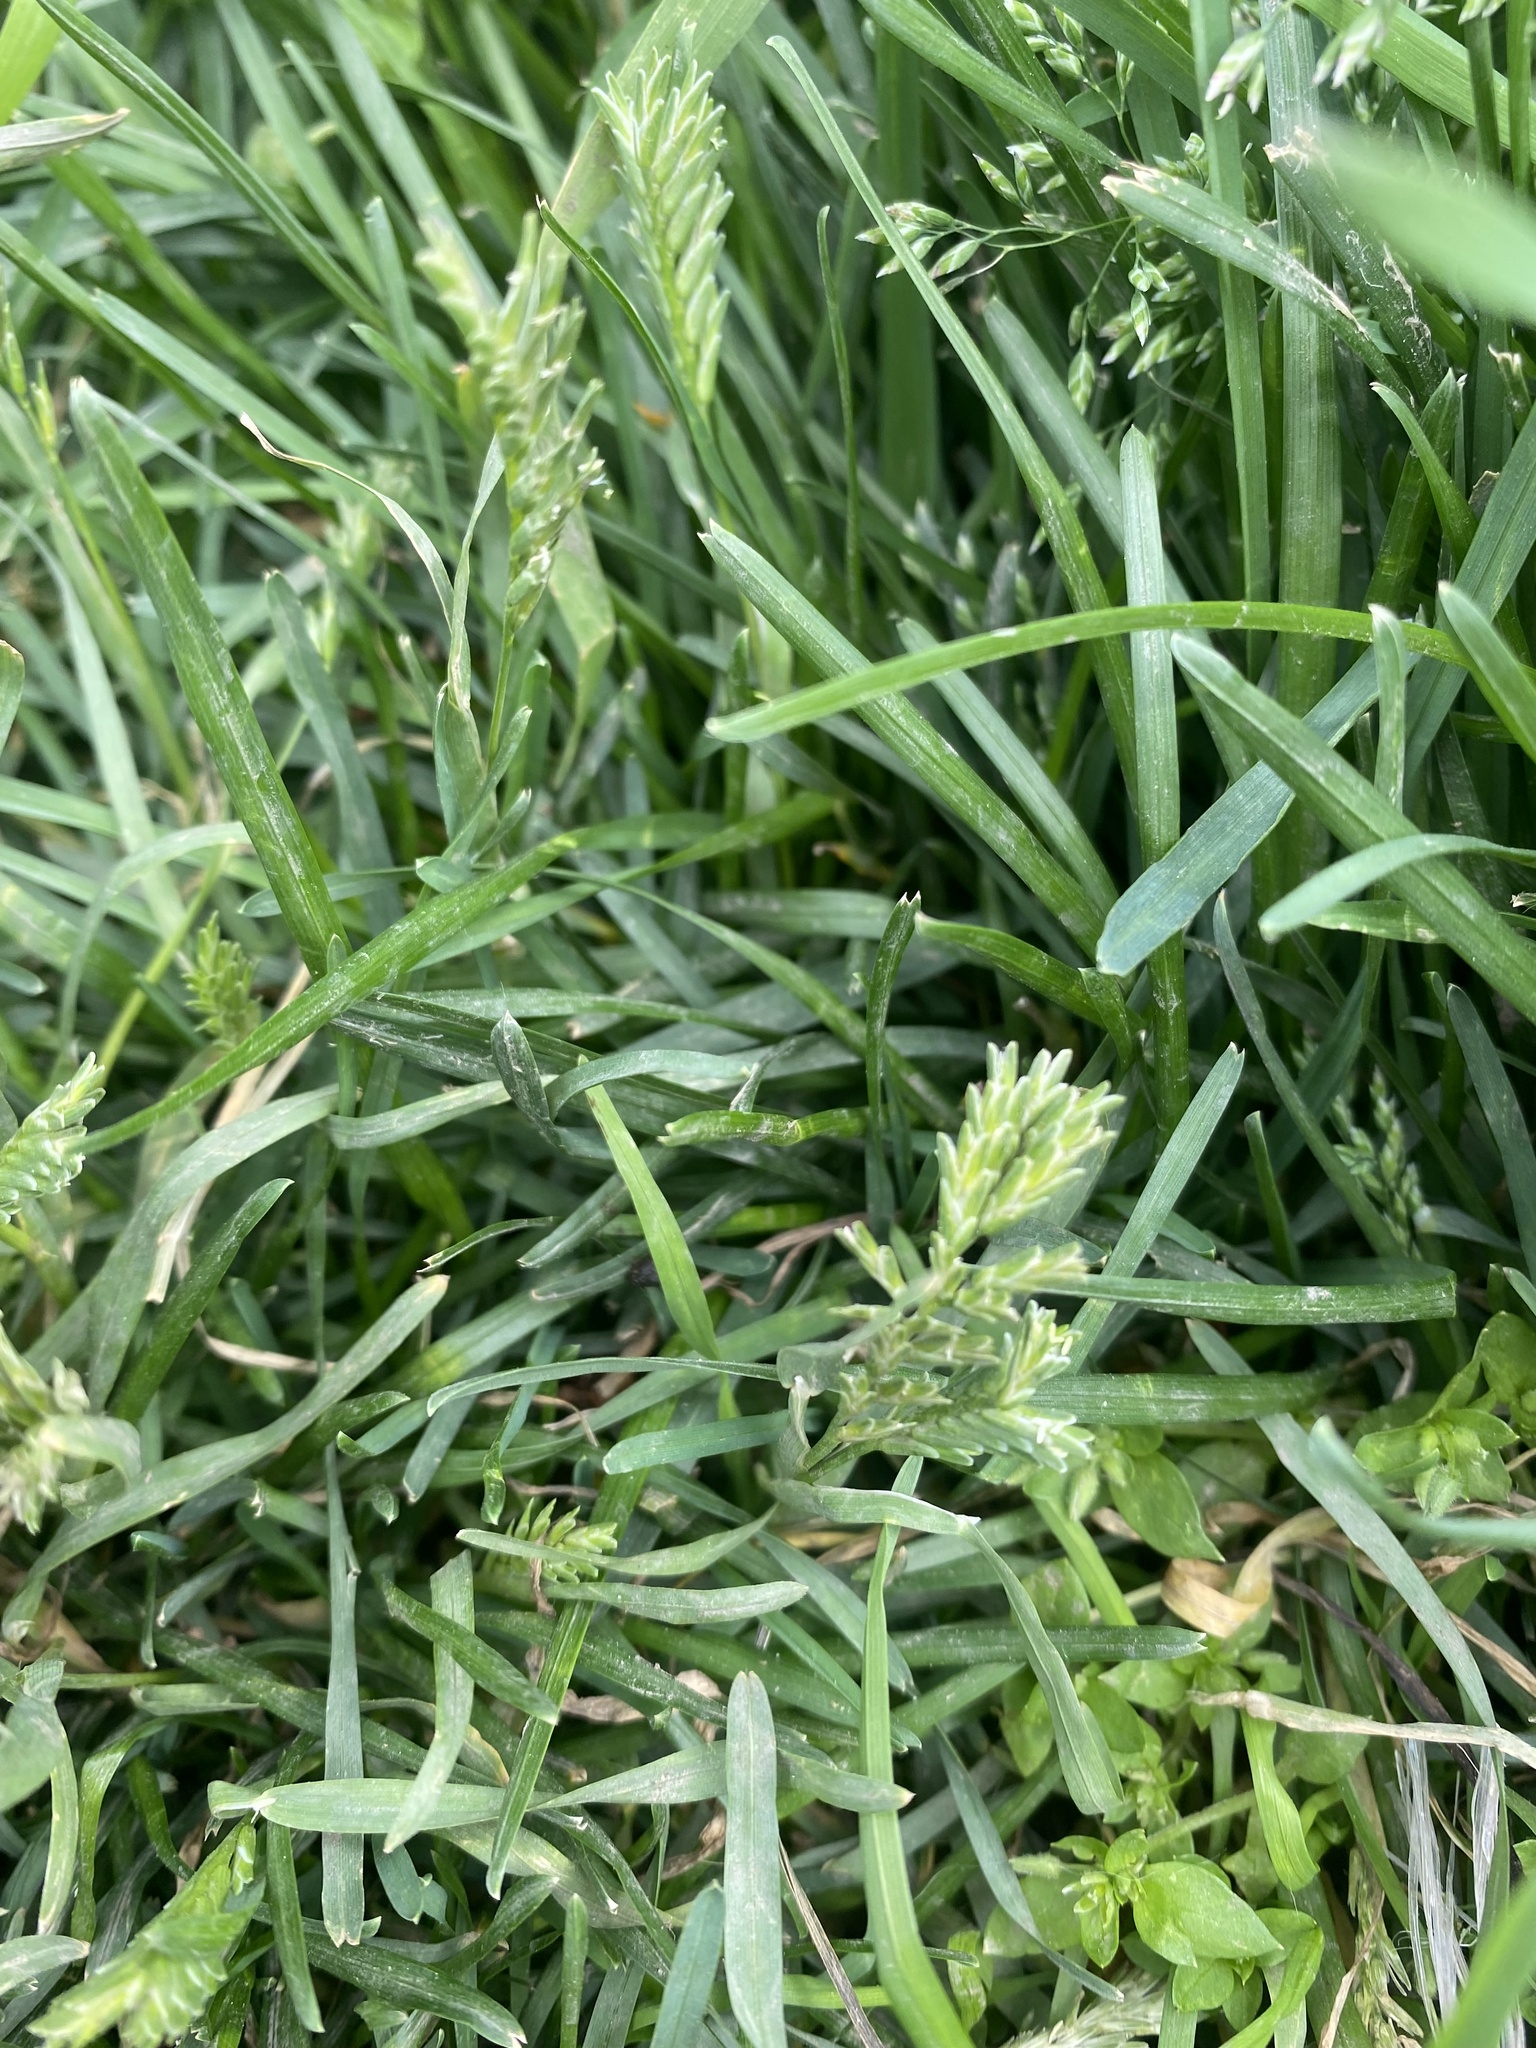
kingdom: Plantae
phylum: Tracheophyta
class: Liliopsida
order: Poales
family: Poaceae
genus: Sclerochloa
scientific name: Sclerochloa dura
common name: Common hardgrass
